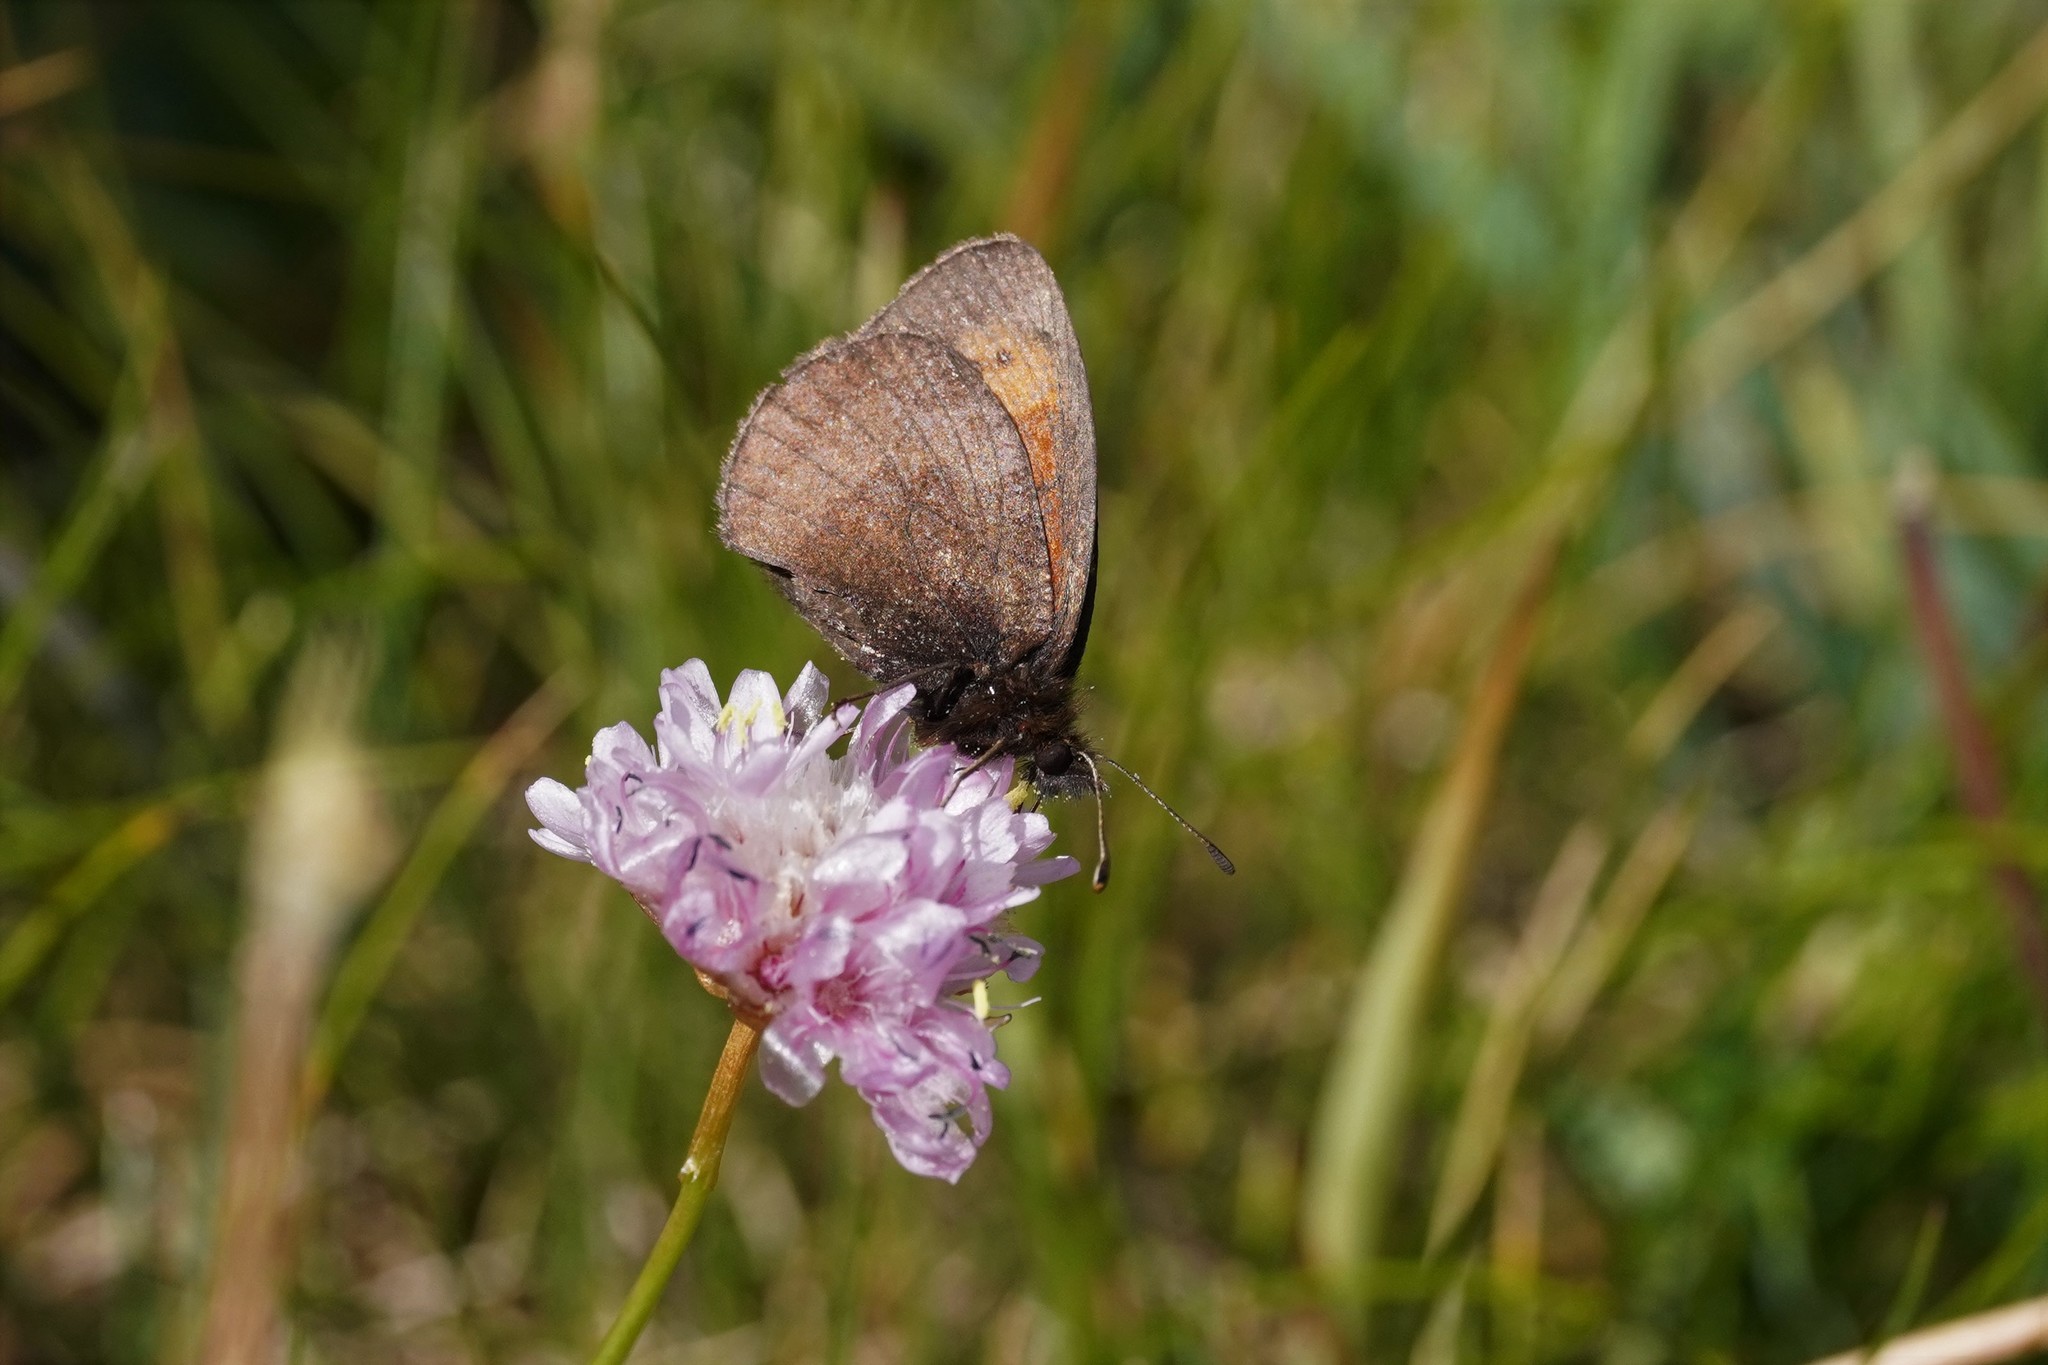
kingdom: Animalia
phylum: Arthropoda
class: Insecta
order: Lepidoptera
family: Nymphalidae
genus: Erebia
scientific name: Erebia mnestra
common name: Mnestra’s ringlet
